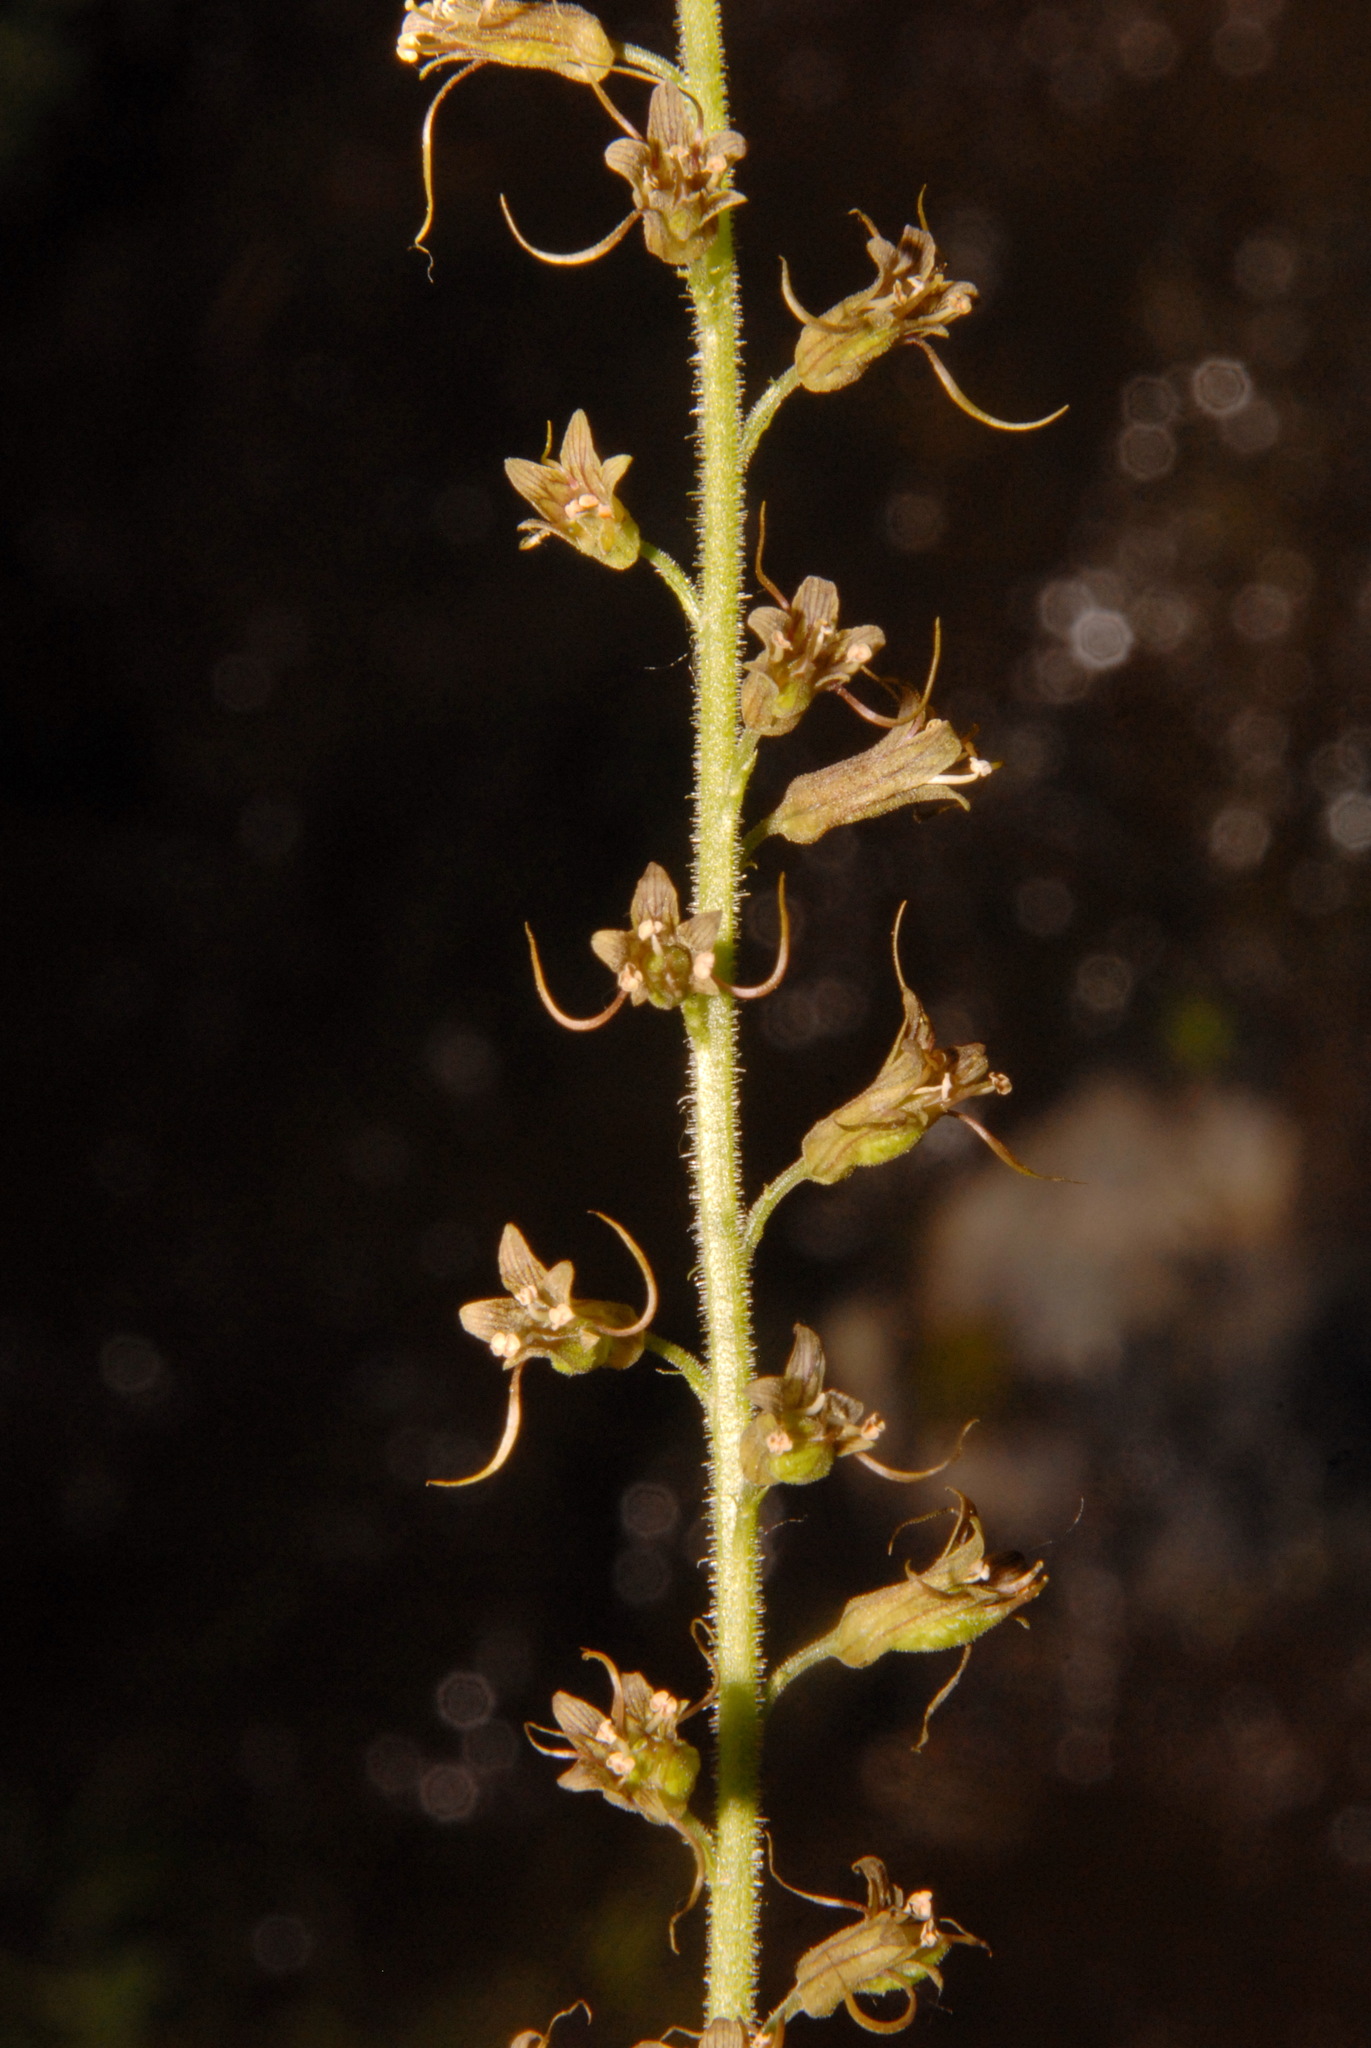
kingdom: Plantae
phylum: Tracheophyta
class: Magnoliopsida
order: Saxifragales
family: Saxifragaceae
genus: Tolmiea
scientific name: Tolmiea menziesii
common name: Pick-a-back-plant
